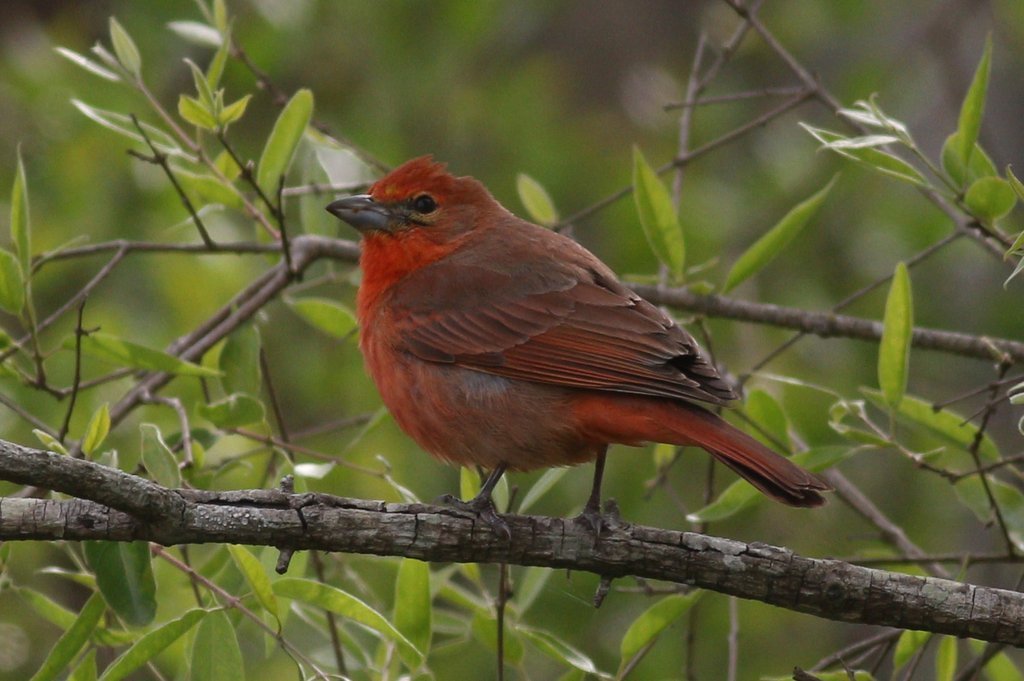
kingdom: Animalia
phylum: Chordata
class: Aves
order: Passeriformes
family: Cardinalidae
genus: Piranga
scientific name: Piranga flava
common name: Red tanager
